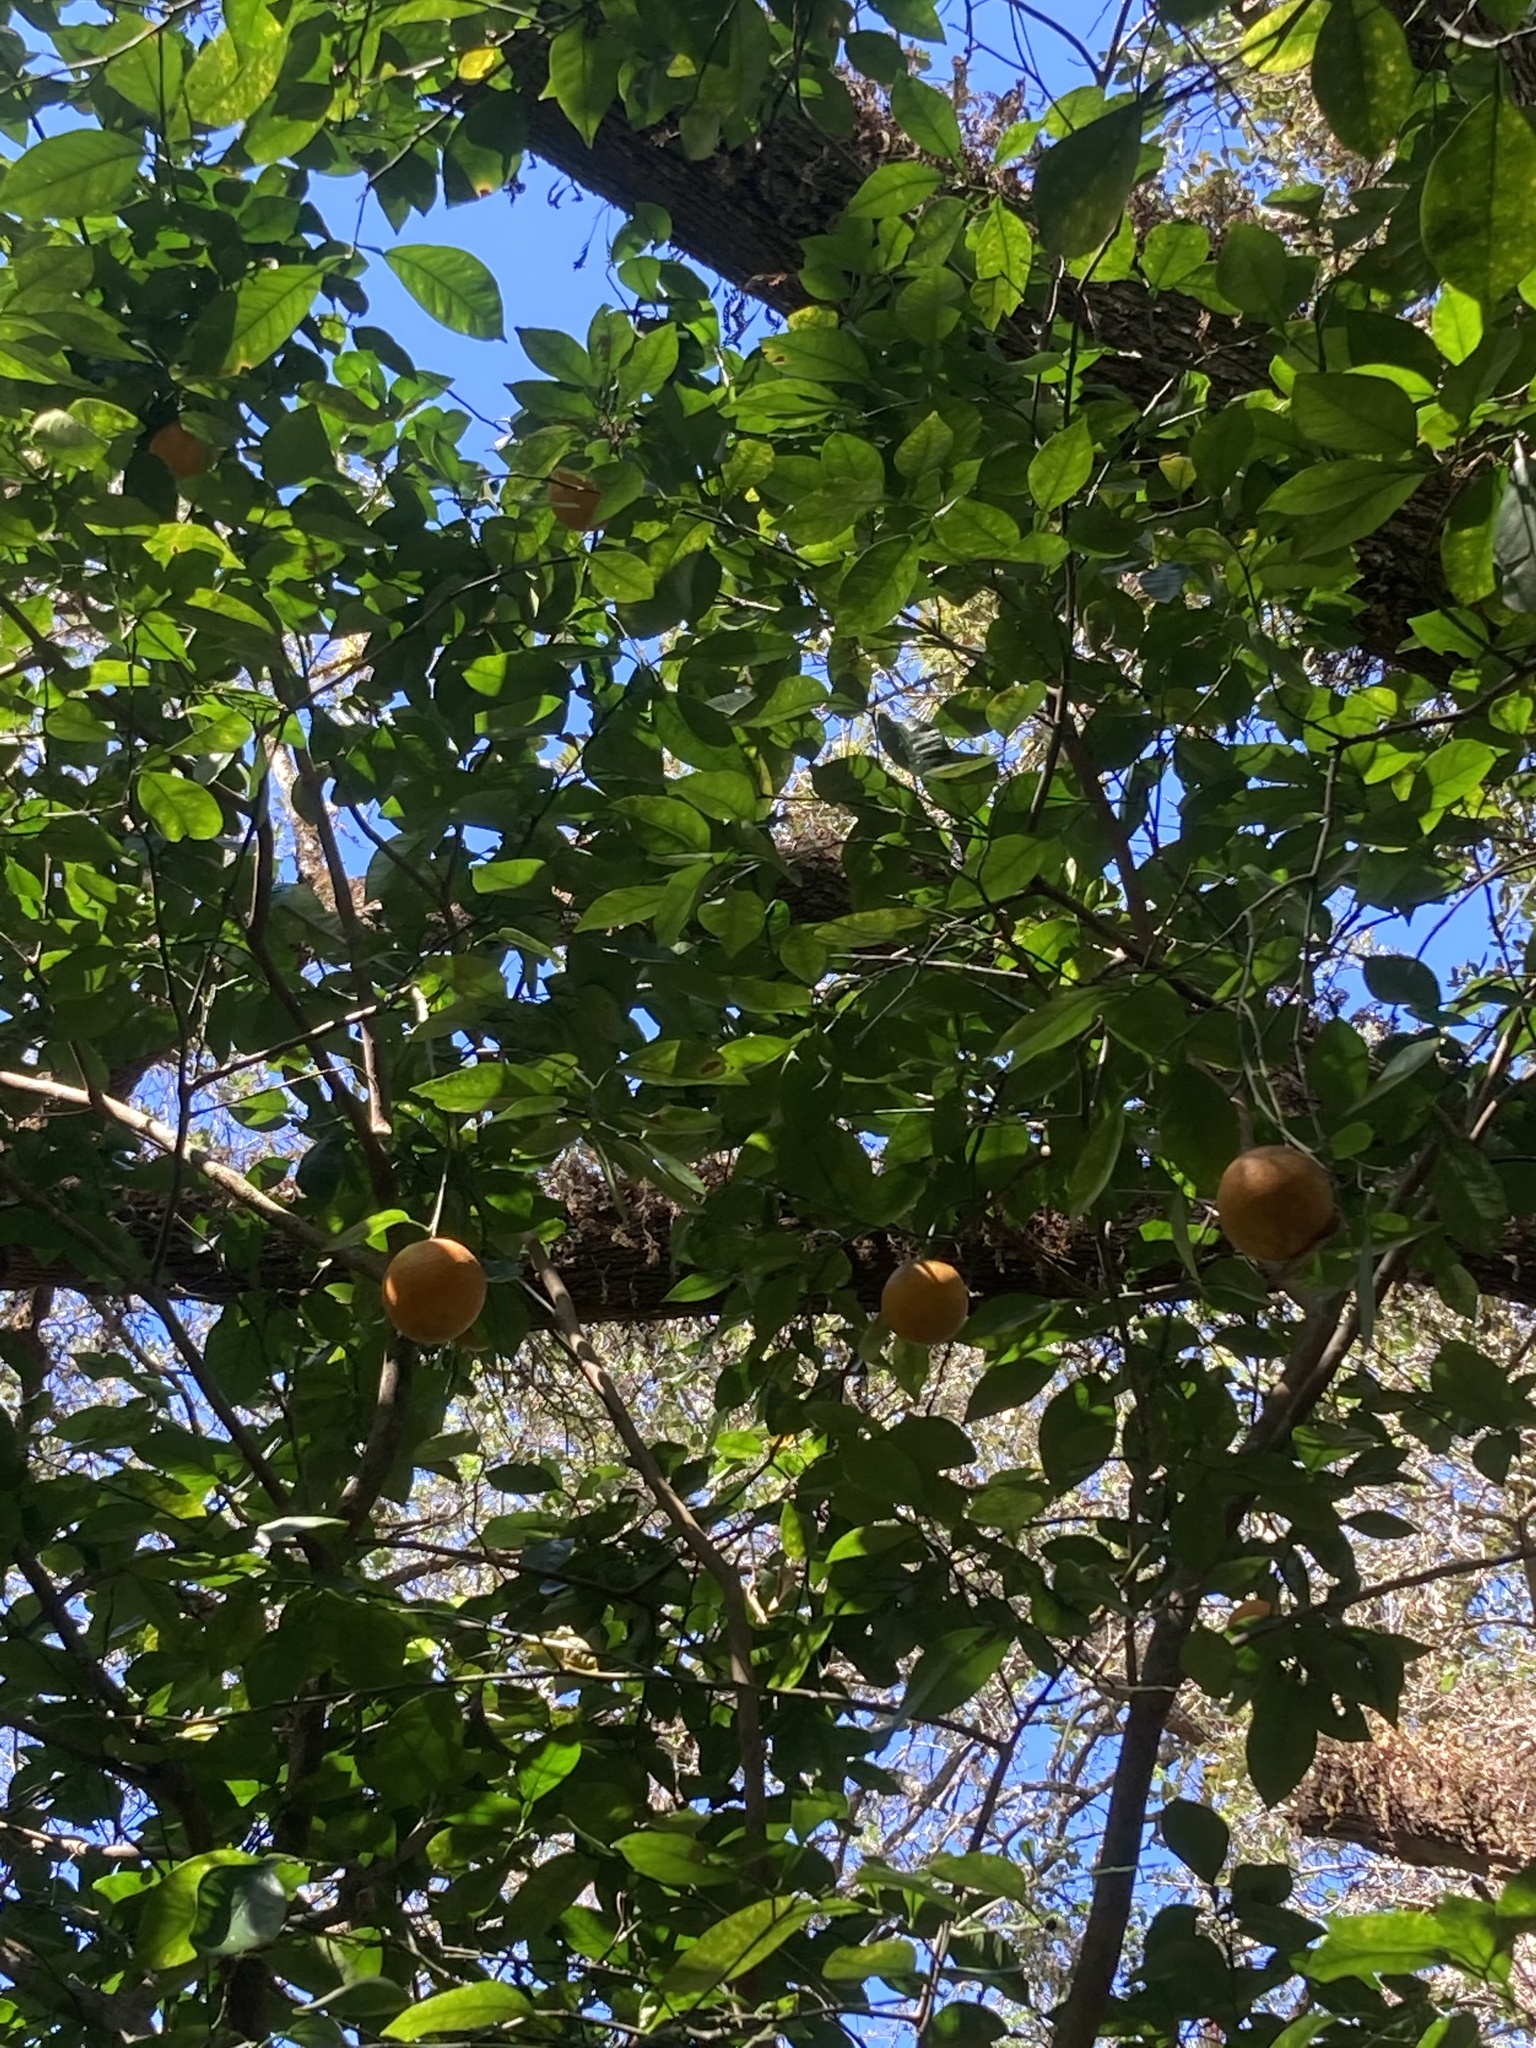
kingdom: Plantae
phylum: Tracheophyta
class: Magnoliopsida
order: Sapindales
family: Rutaceae
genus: Citrus
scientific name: Citrus aurantium
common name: Sour orange
